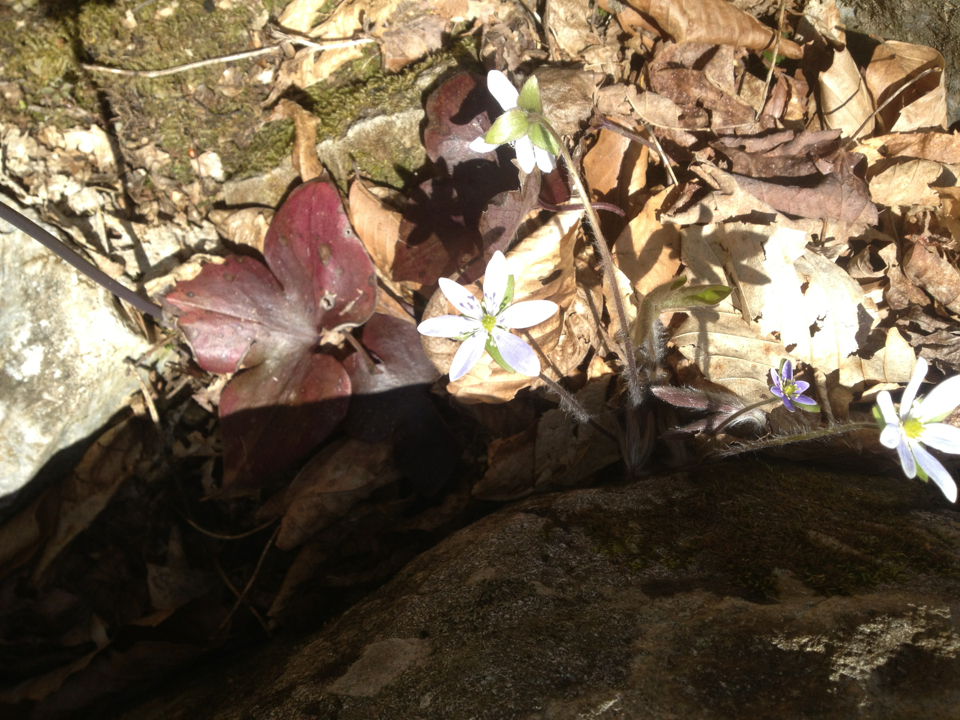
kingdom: Plantae
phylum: Tracheophyta
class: Magnoliopsida
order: Ranunculales
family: Ranunculaceae
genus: Hepatica
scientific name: Hepatica acutiloba
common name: Sharp-lobed hepatica
